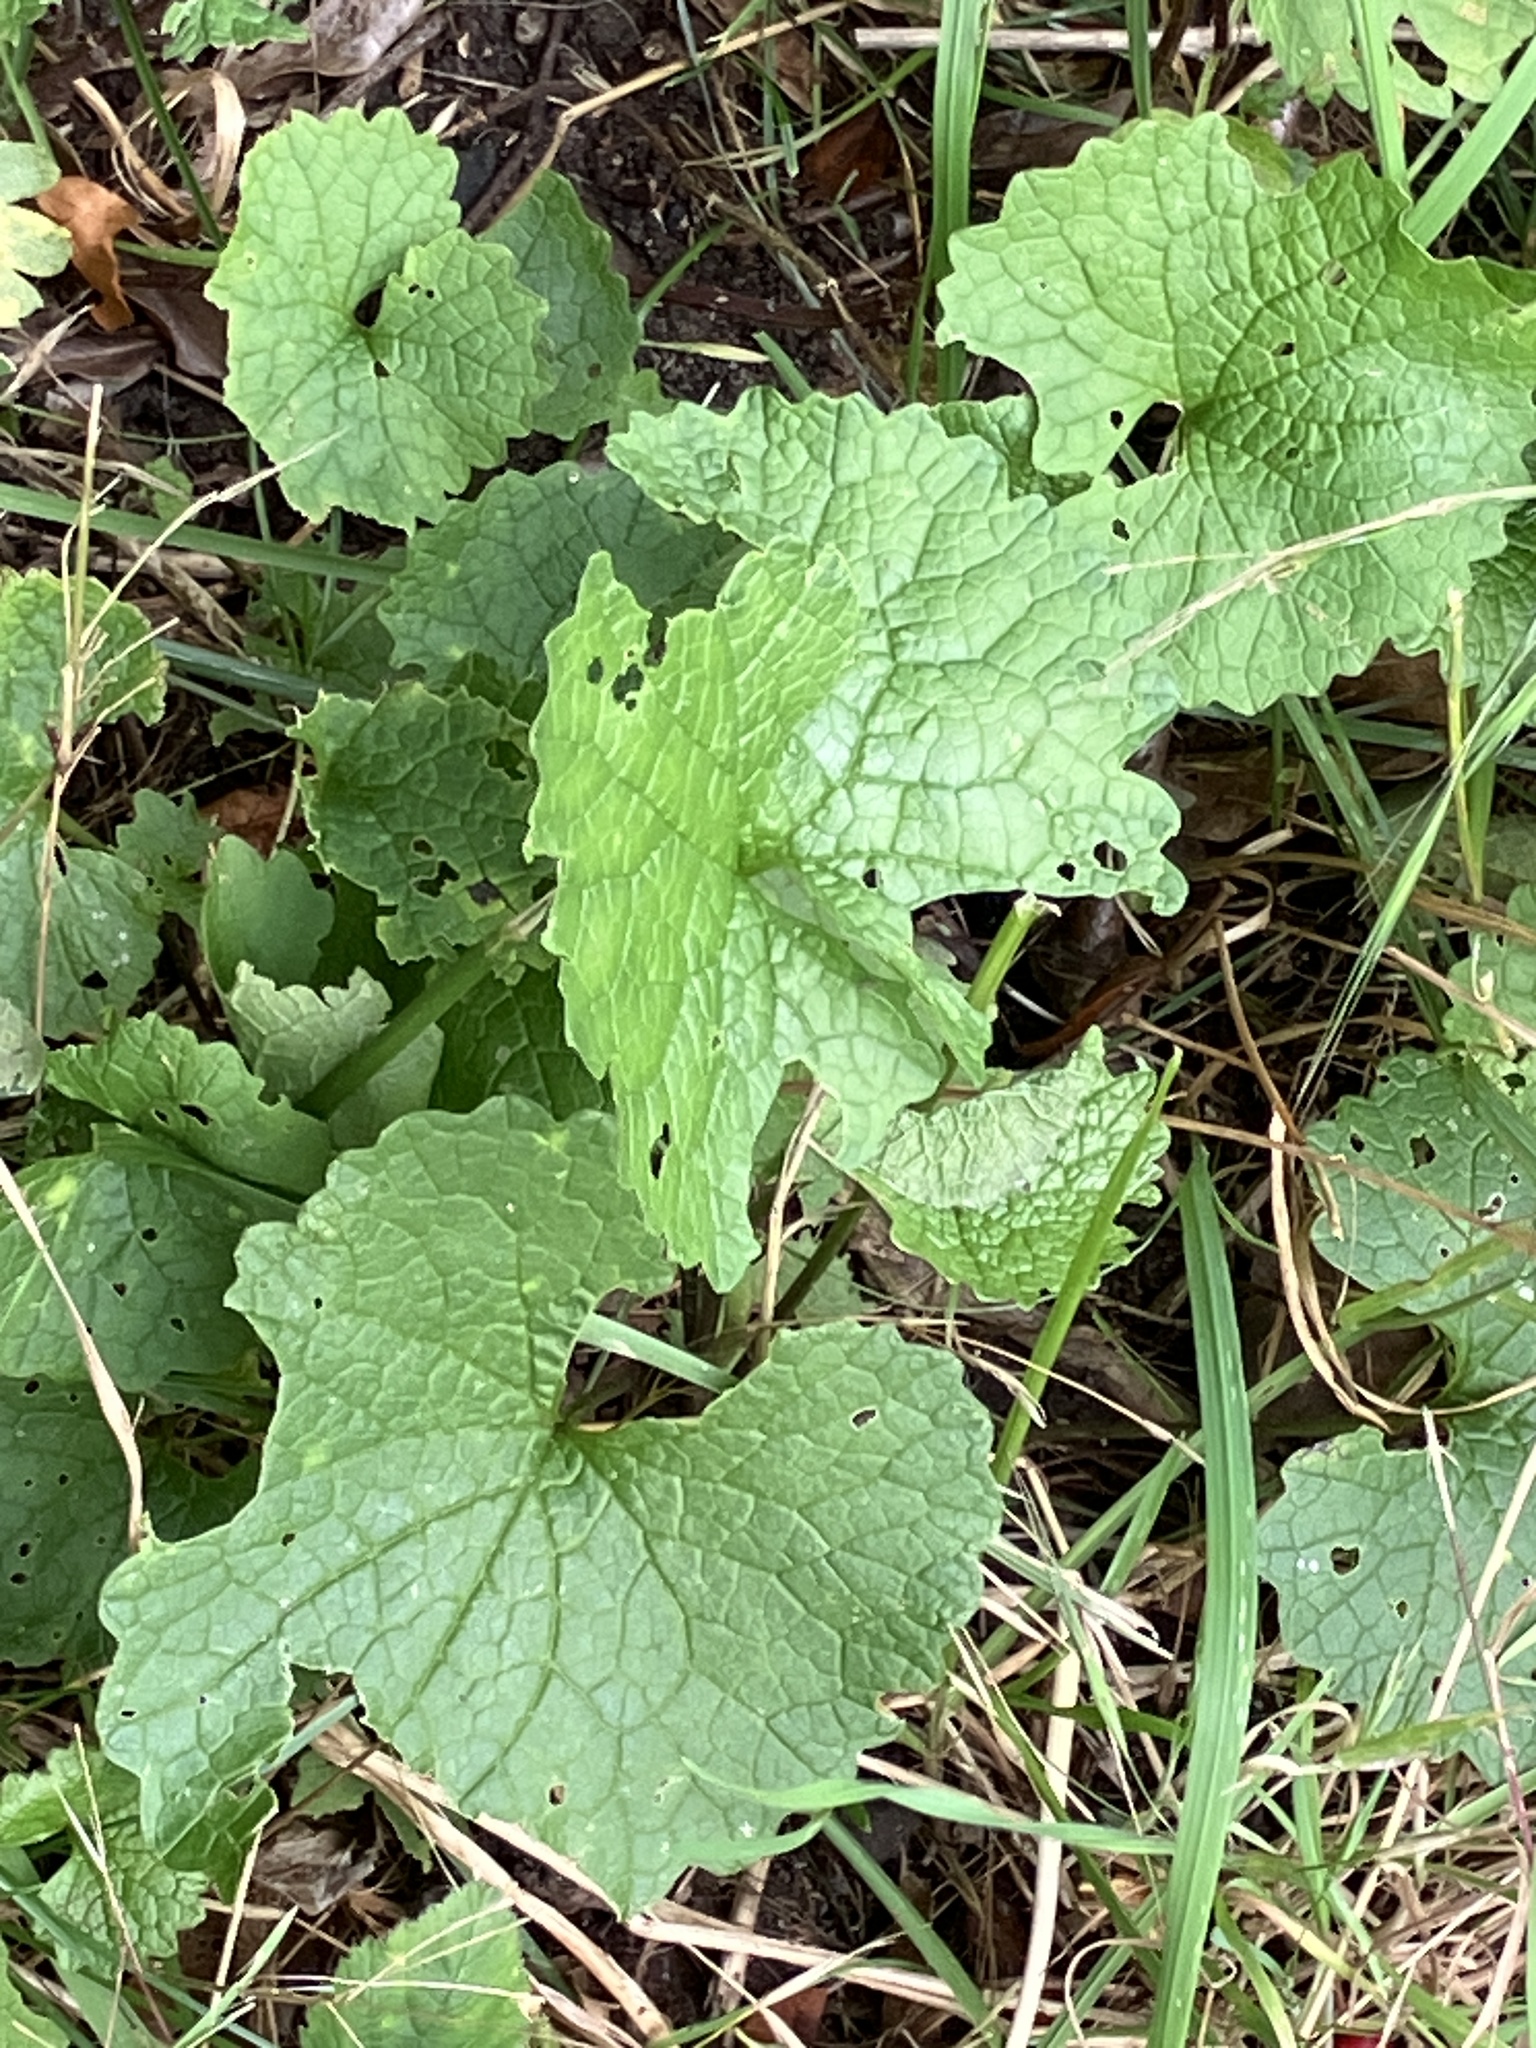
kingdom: Plantae
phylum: Tracheophyta
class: Magnoliopsida
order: Brassicales
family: Brassicaceae
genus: Alliaria
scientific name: Alliaria petiolata
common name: Garlic mustard
